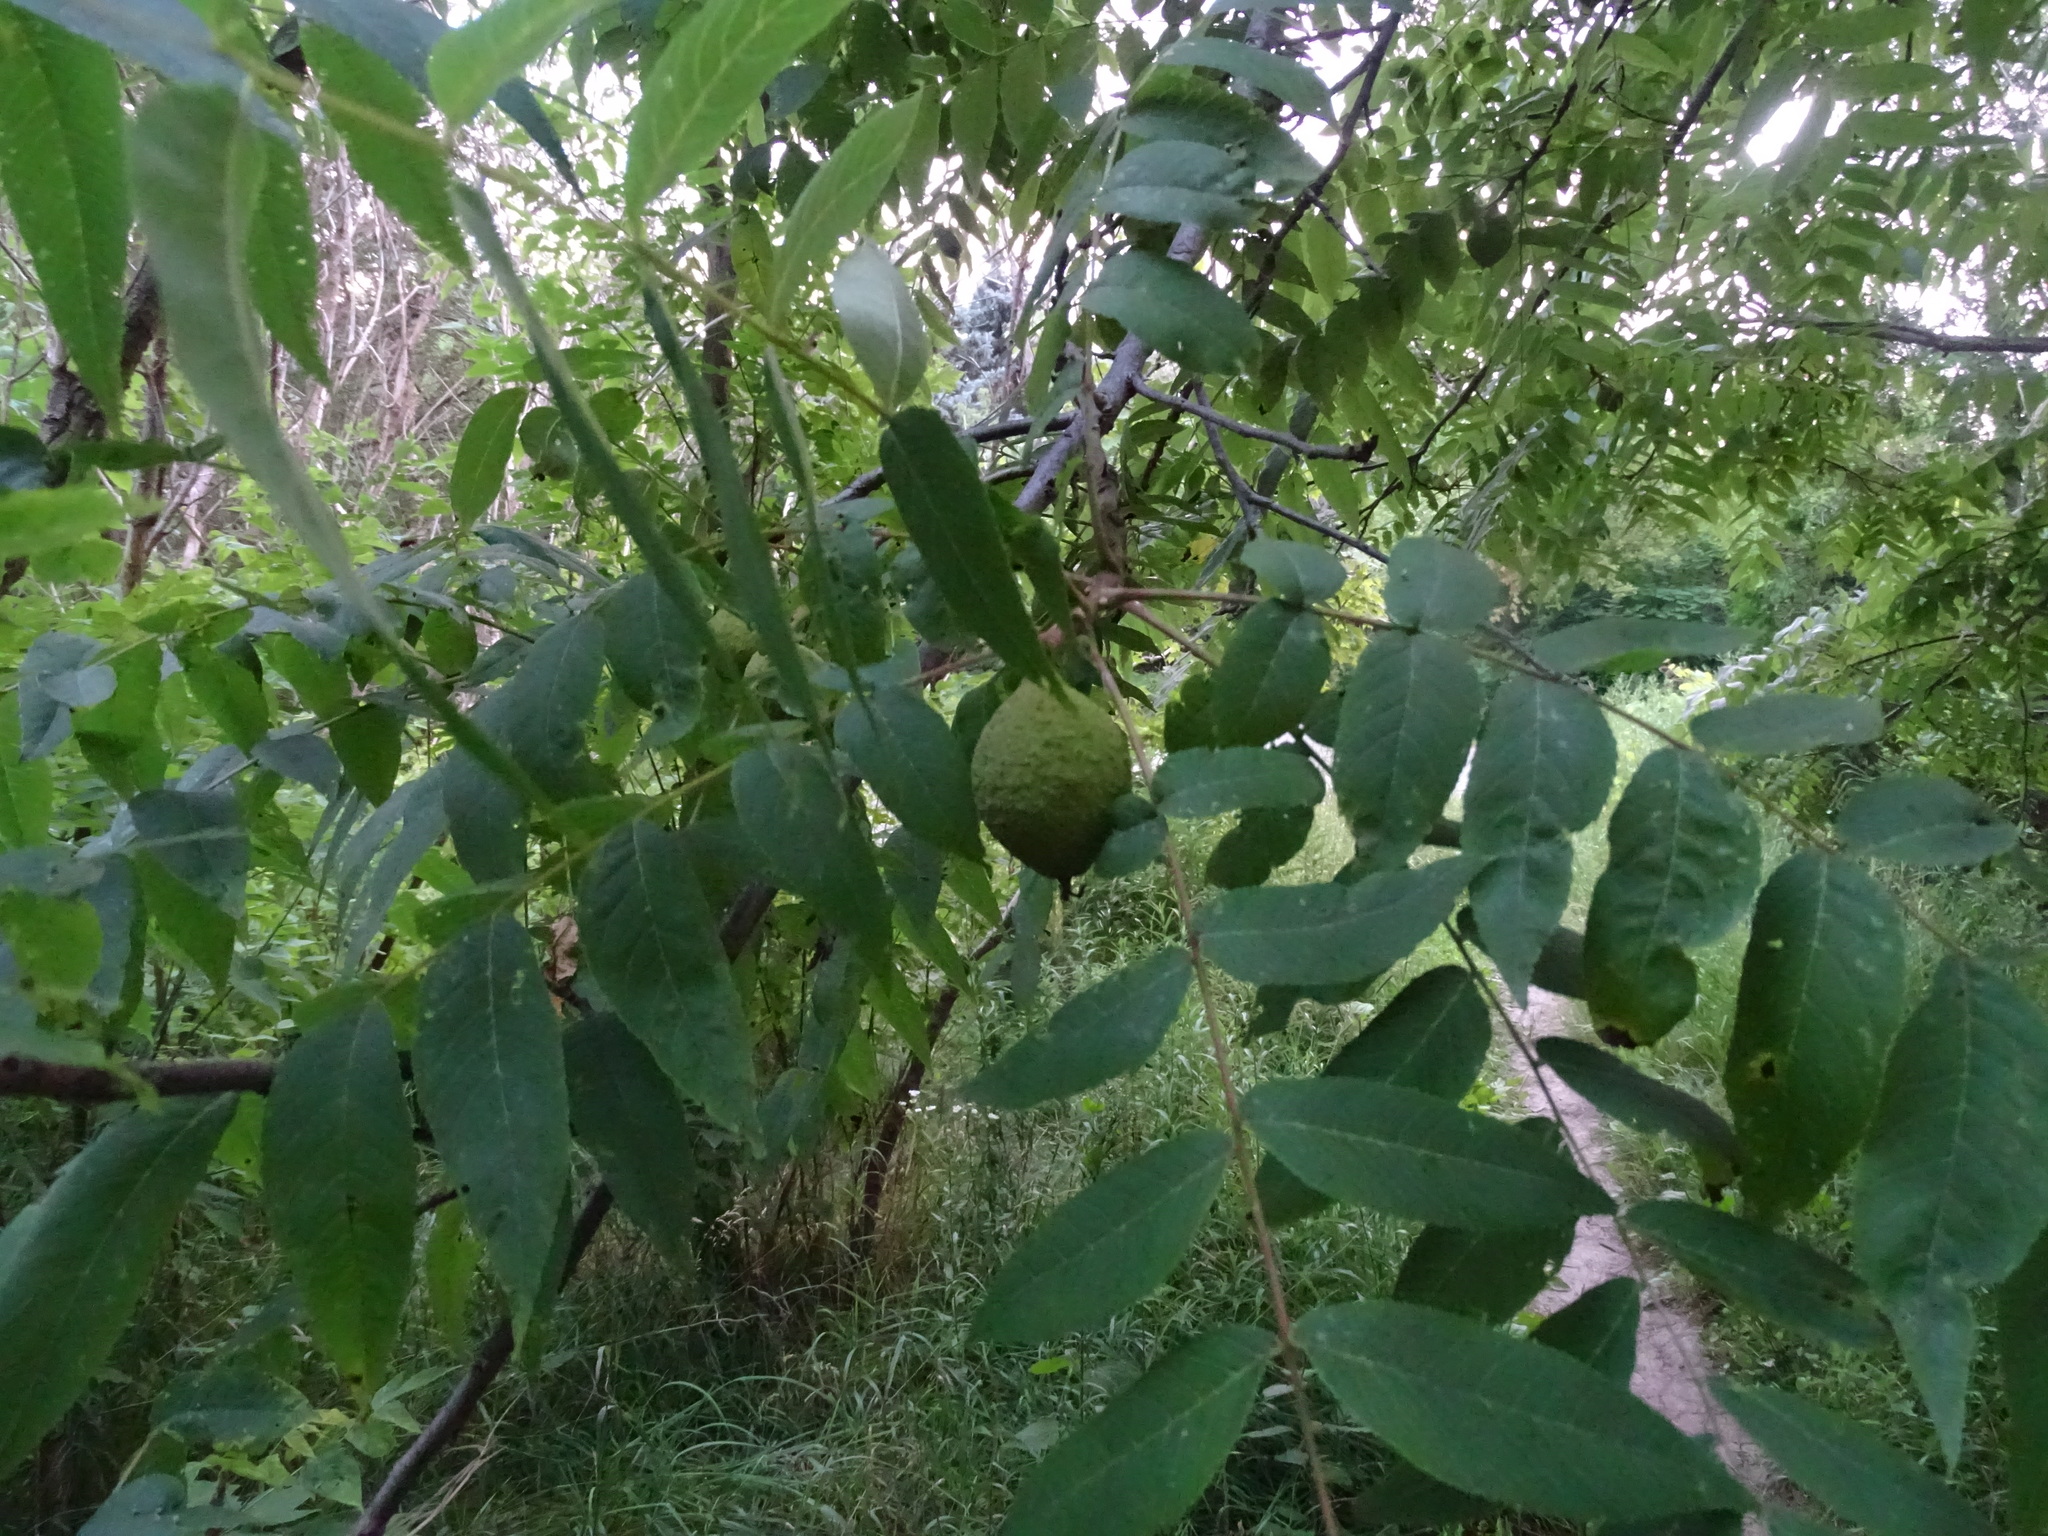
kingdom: Plantae
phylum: Tracheophyta
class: Magnoliopsida
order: Fagales
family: Juglandaceae
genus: Juglans
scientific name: Juglans nigra
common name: Black walnut
